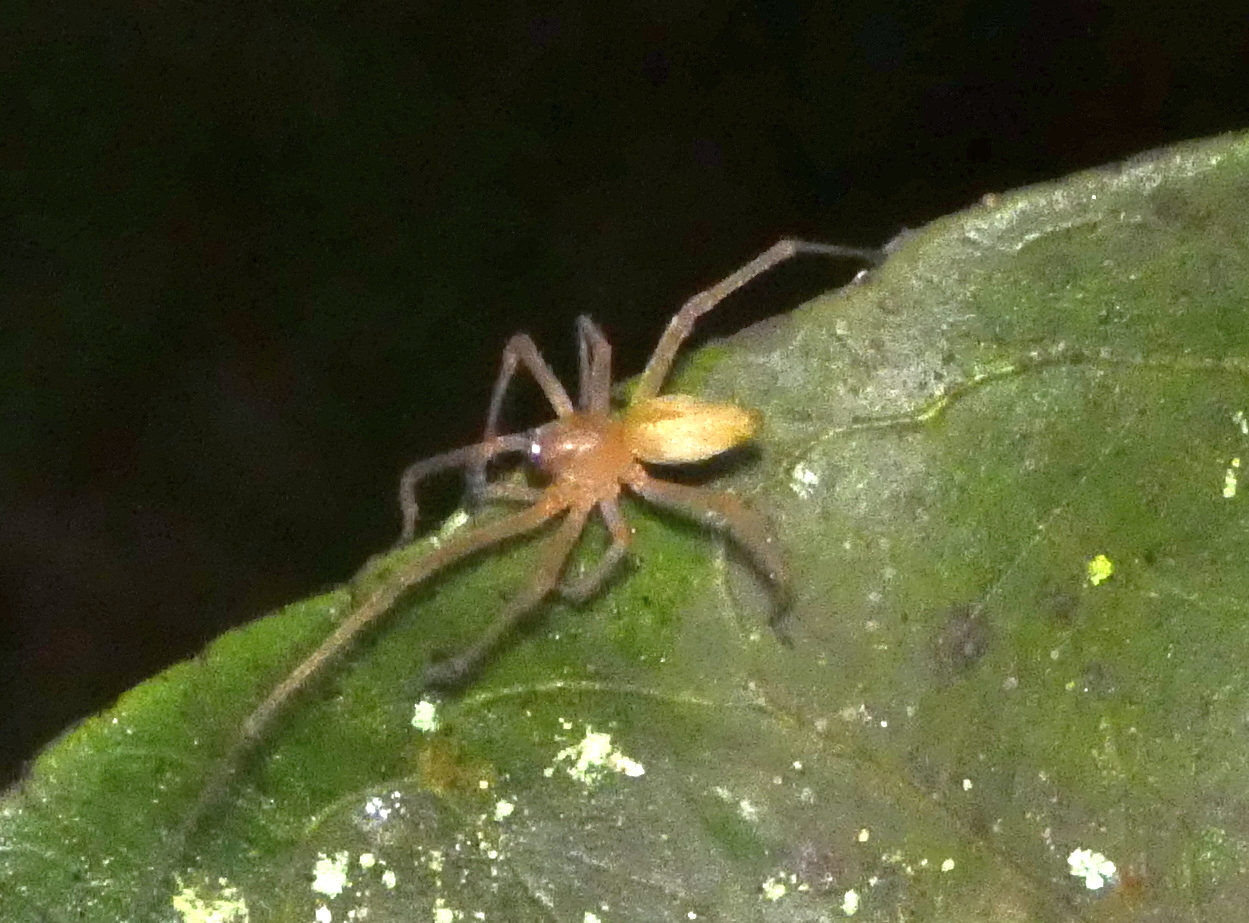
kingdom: Animalia
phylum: Arthropoda
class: Arachnida
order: Araneae
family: Cheiracanthiidae
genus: Cheiracanthium
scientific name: Cheiracanthium inclusum
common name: Long-legged sac spiders
